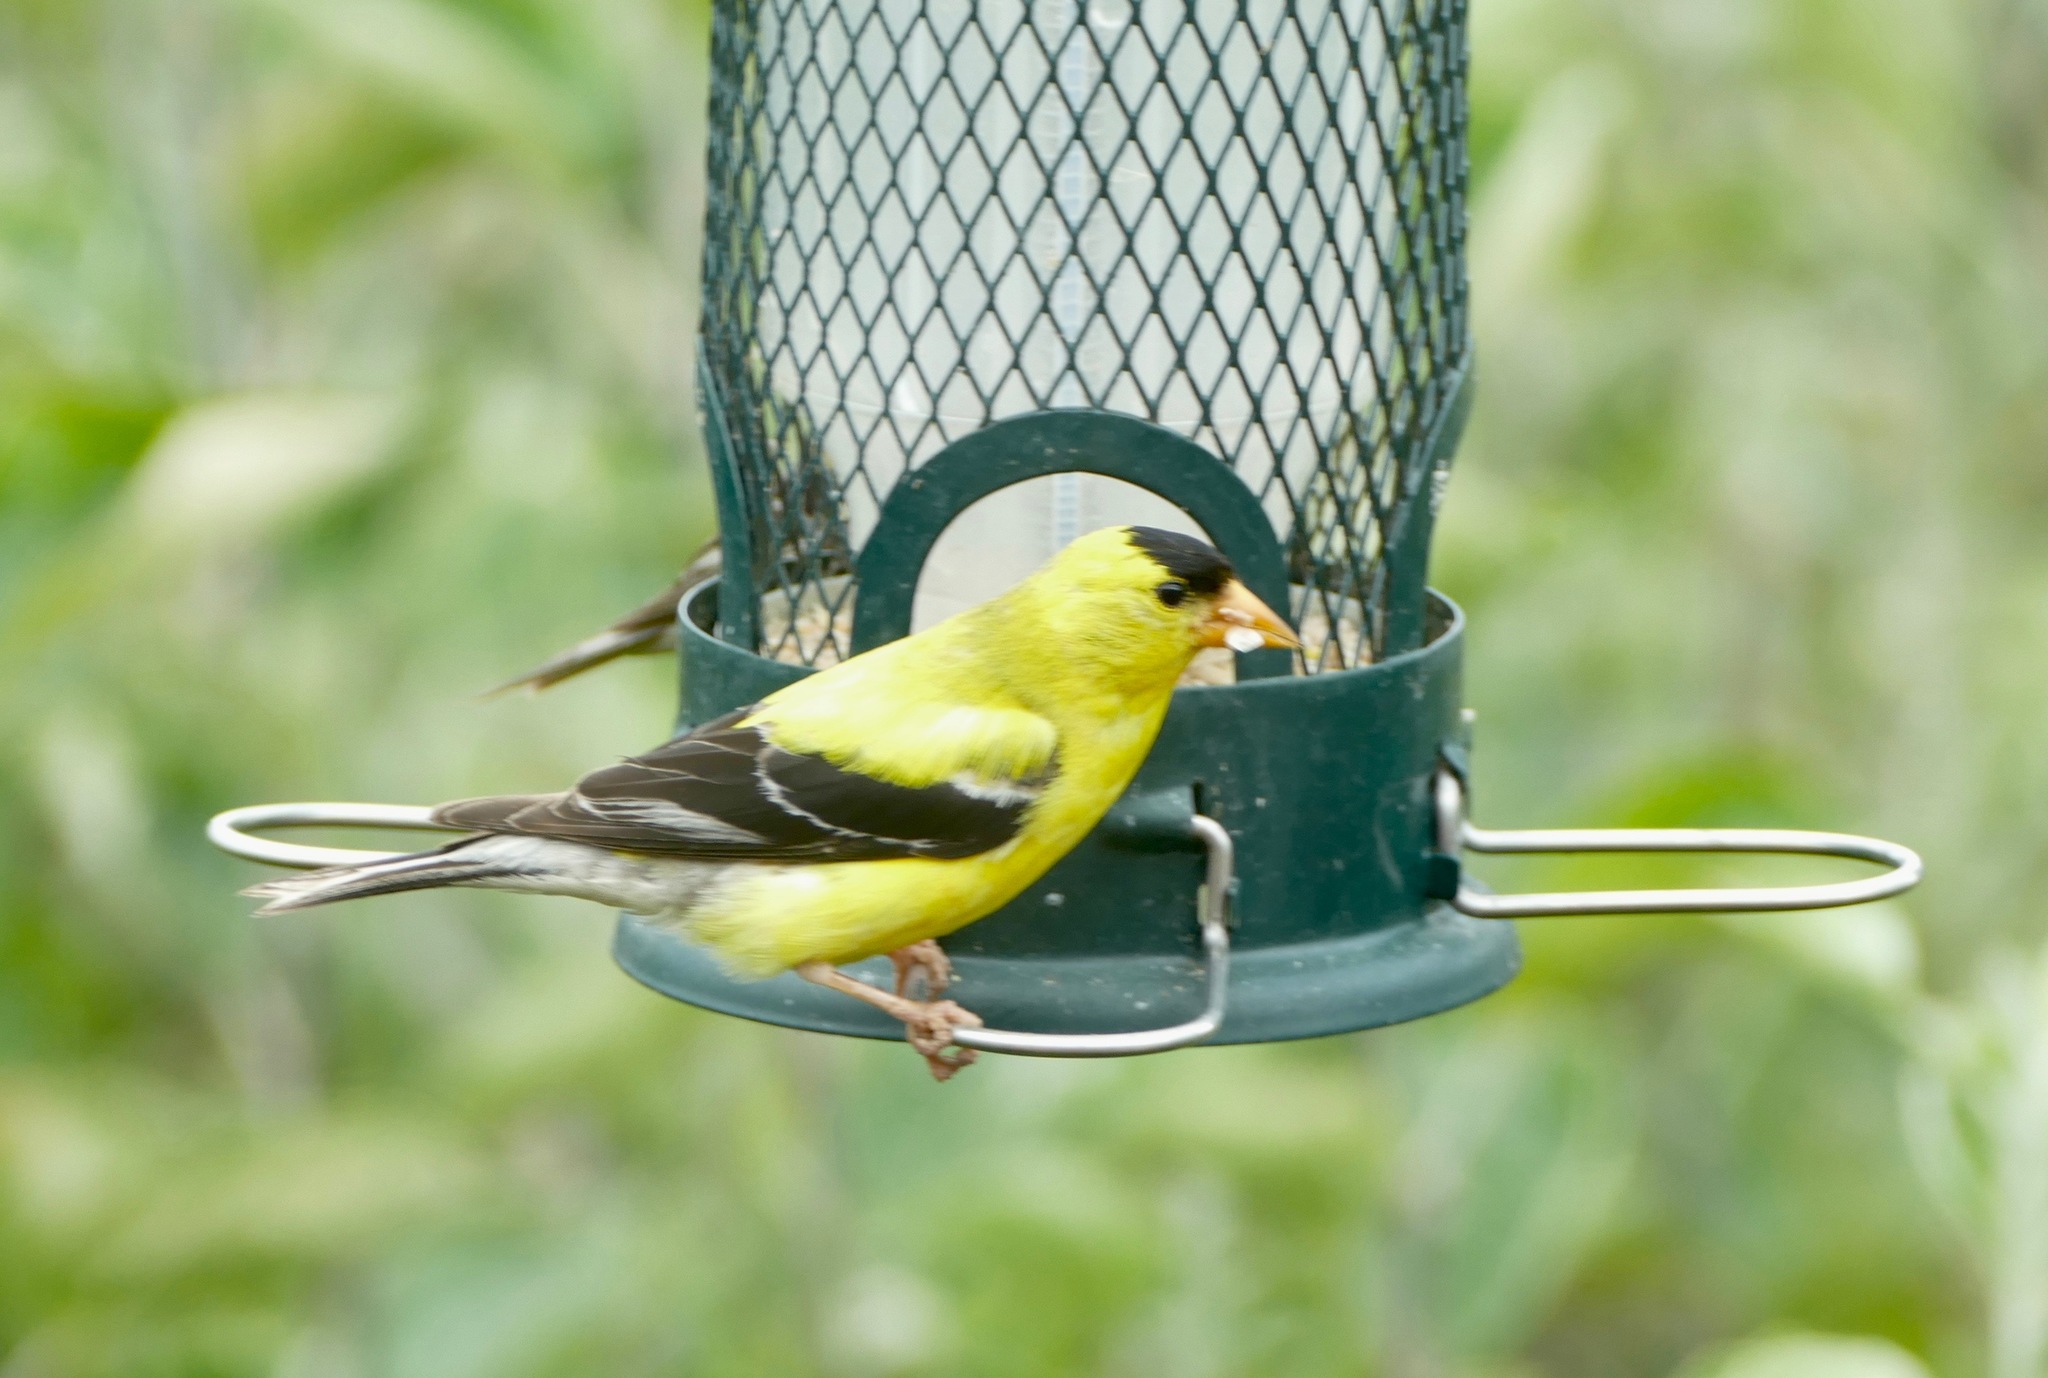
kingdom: Animalia
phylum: Chordata
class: Aves
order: Passeriformes
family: Fringillidae
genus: Spinus
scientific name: Spinus tristis
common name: American goldfinch
